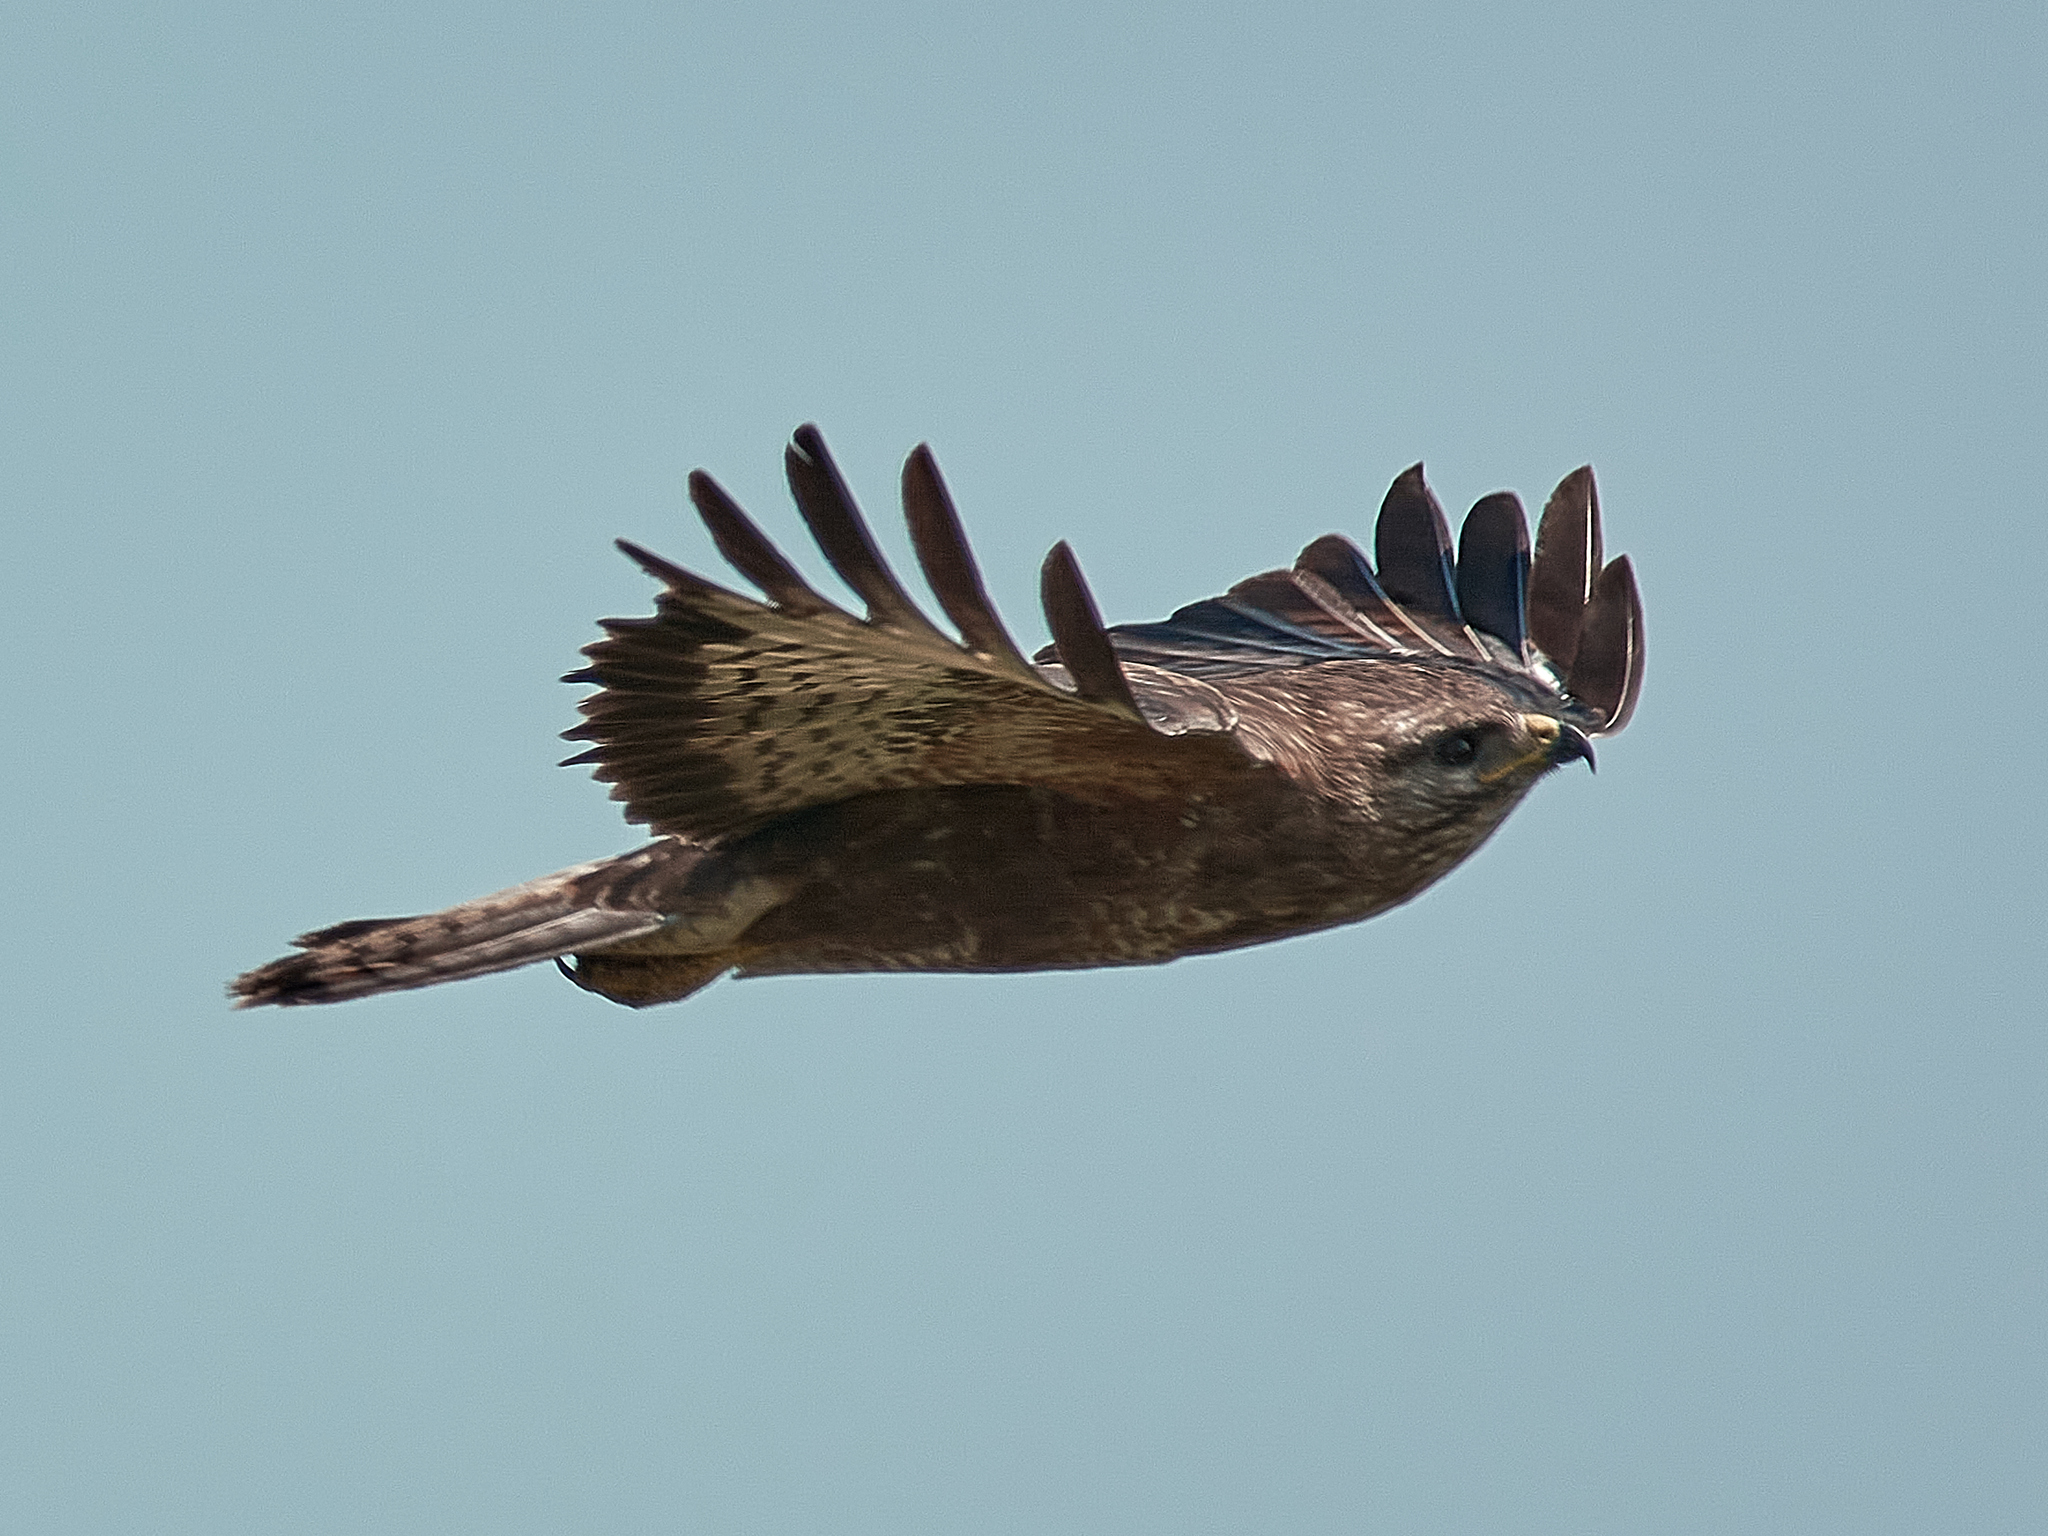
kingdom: Animalia
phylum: Chordata
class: Aves
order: Accipitriformes
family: Accipitridae
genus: Buteo
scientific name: Buteo buteo
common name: Common buzzard
